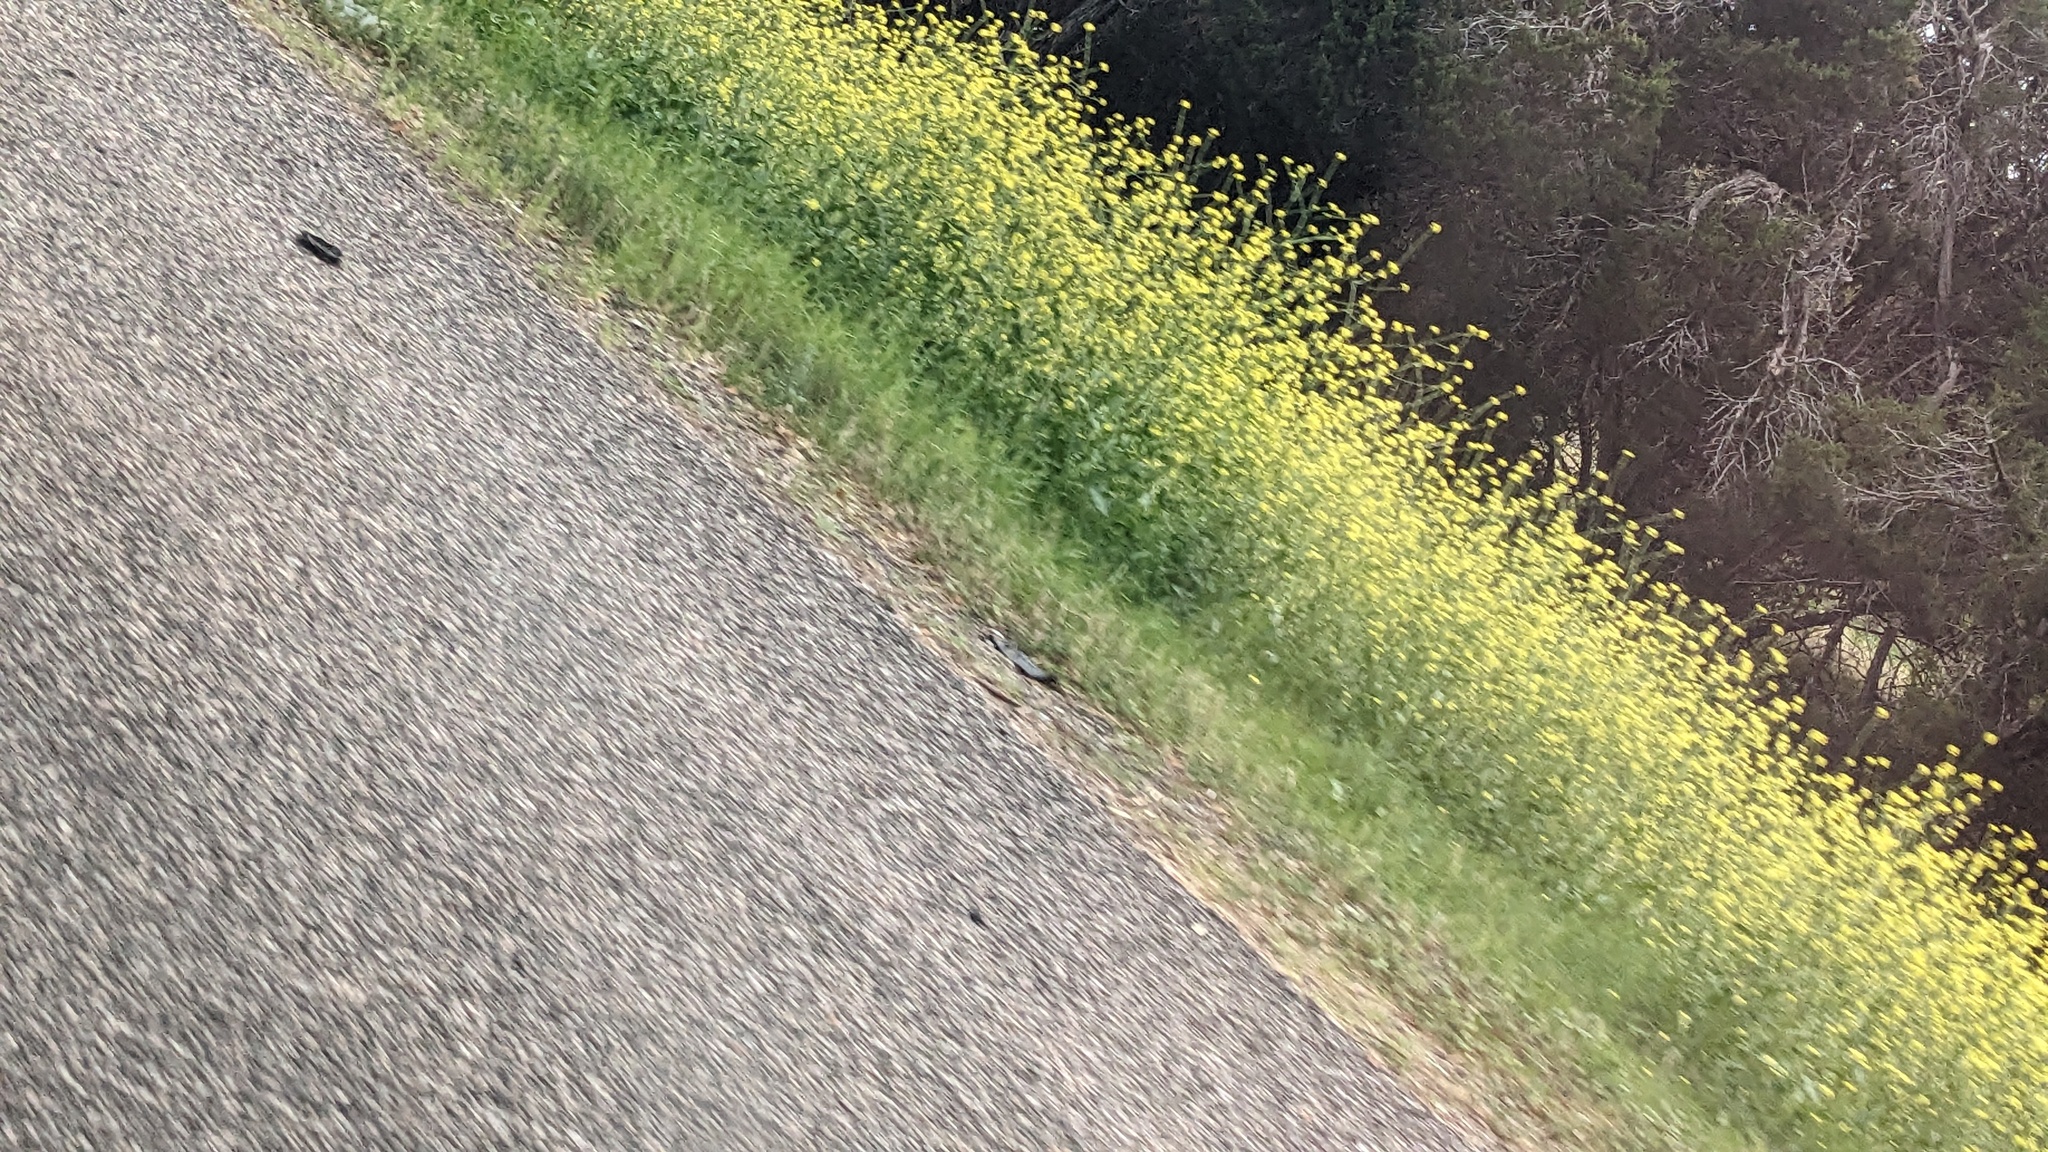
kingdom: Plantae
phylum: Tracheophyta
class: Magnoliopsida
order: Brassicales
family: Brassicaceae
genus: Rapistrum
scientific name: Rapistrum rugosum
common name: Annual bastardcabbage
